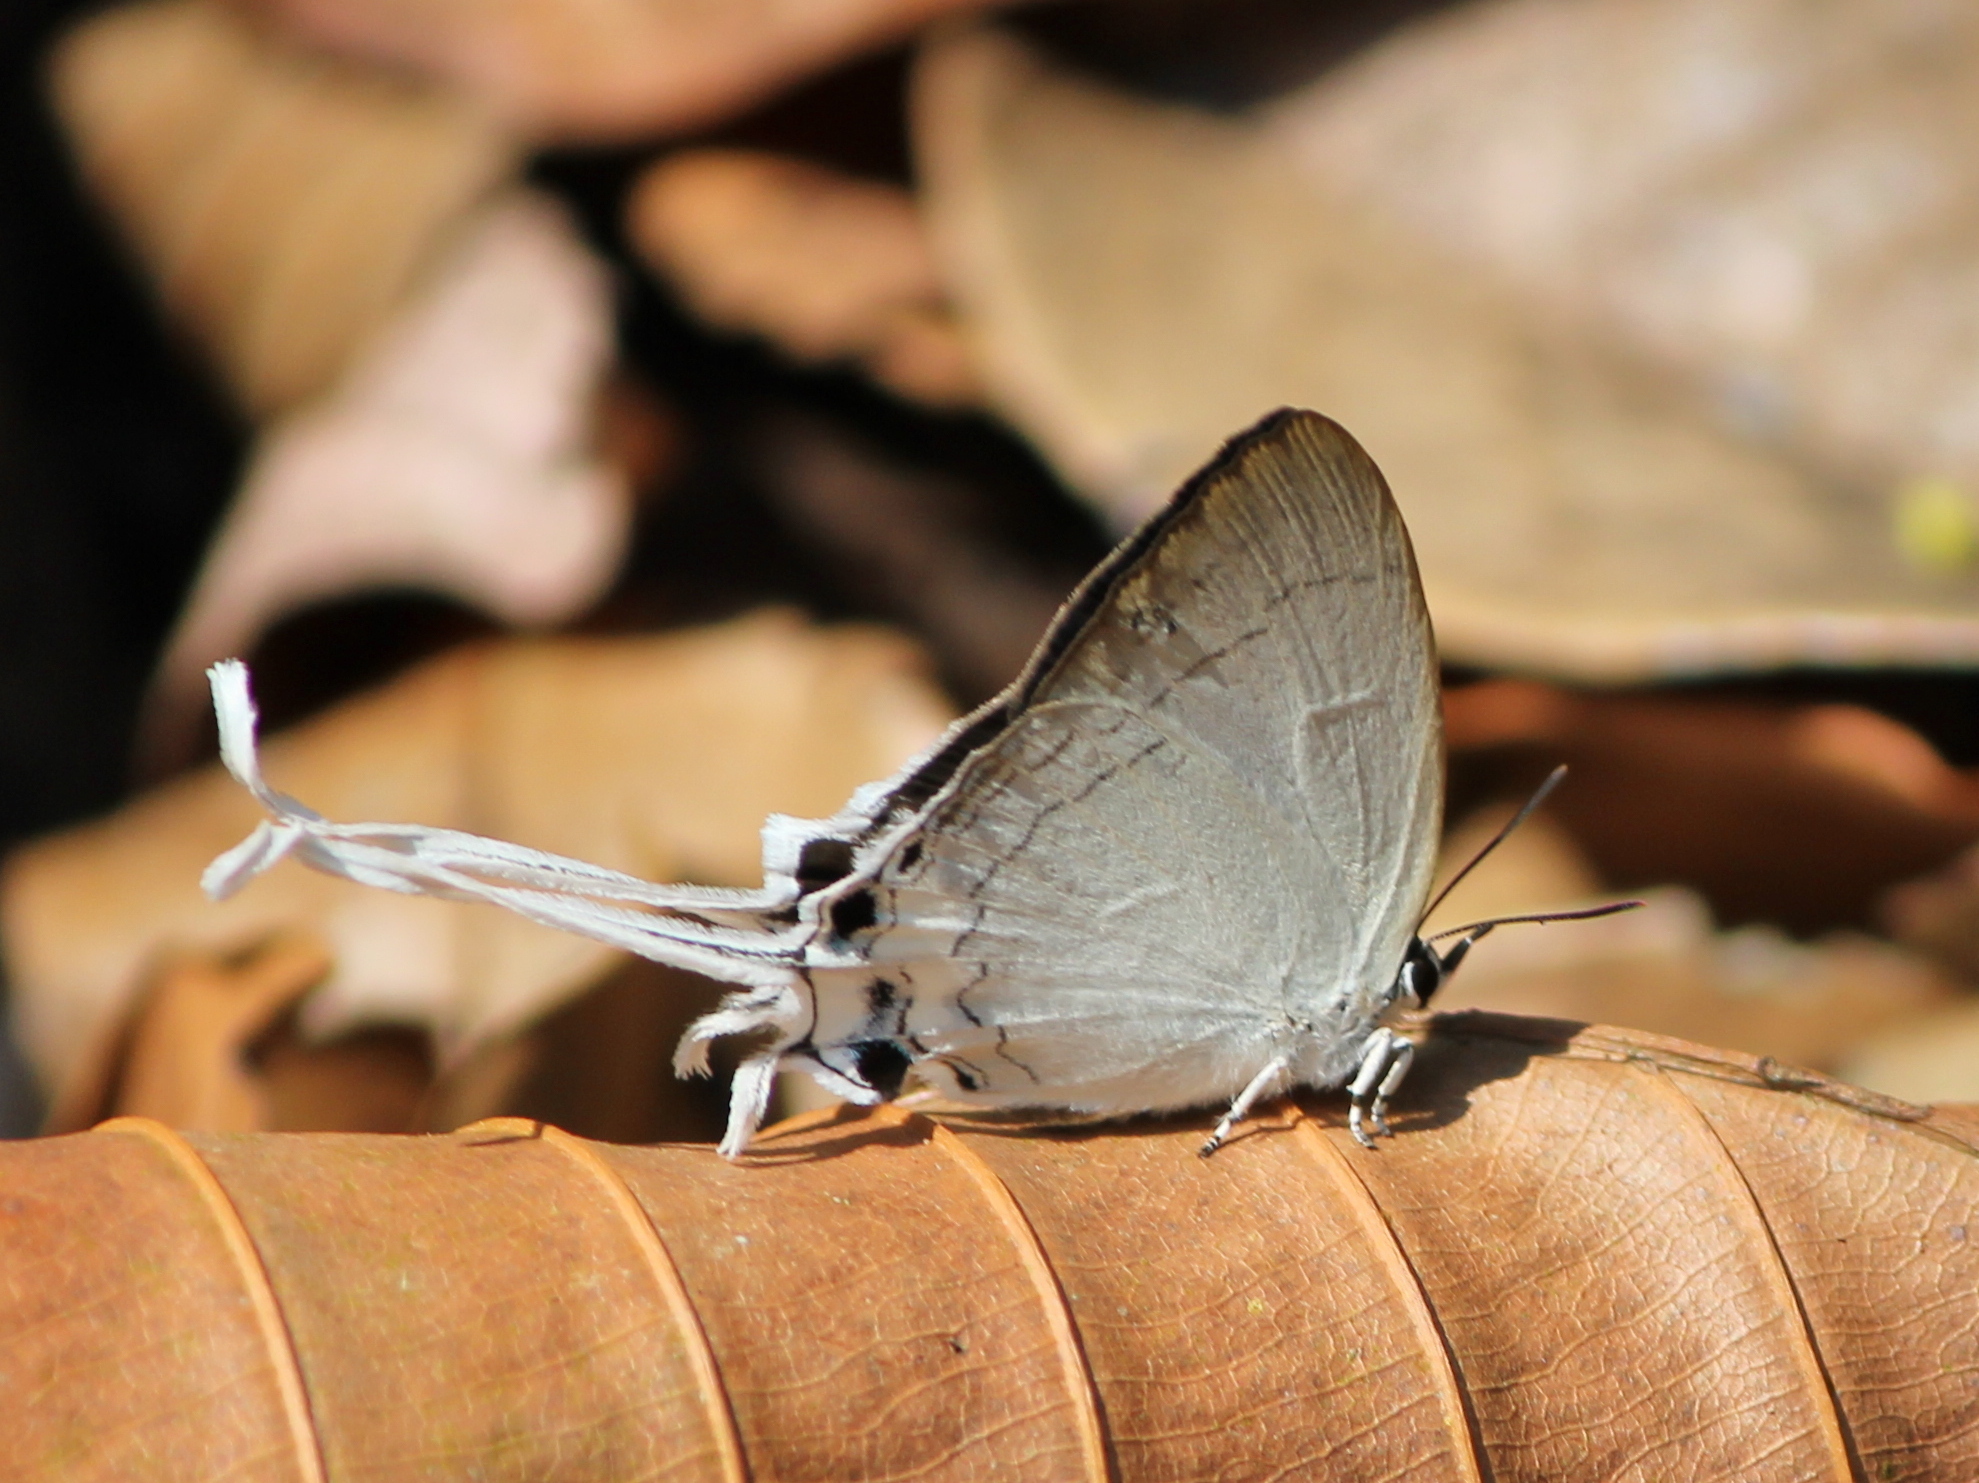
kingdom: Animalia
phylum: Arthropoda
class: Insecta
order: Lepidoptera
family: Lycaenidae
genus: Cheritra
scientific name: Cheritra freja
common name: Common imperial
